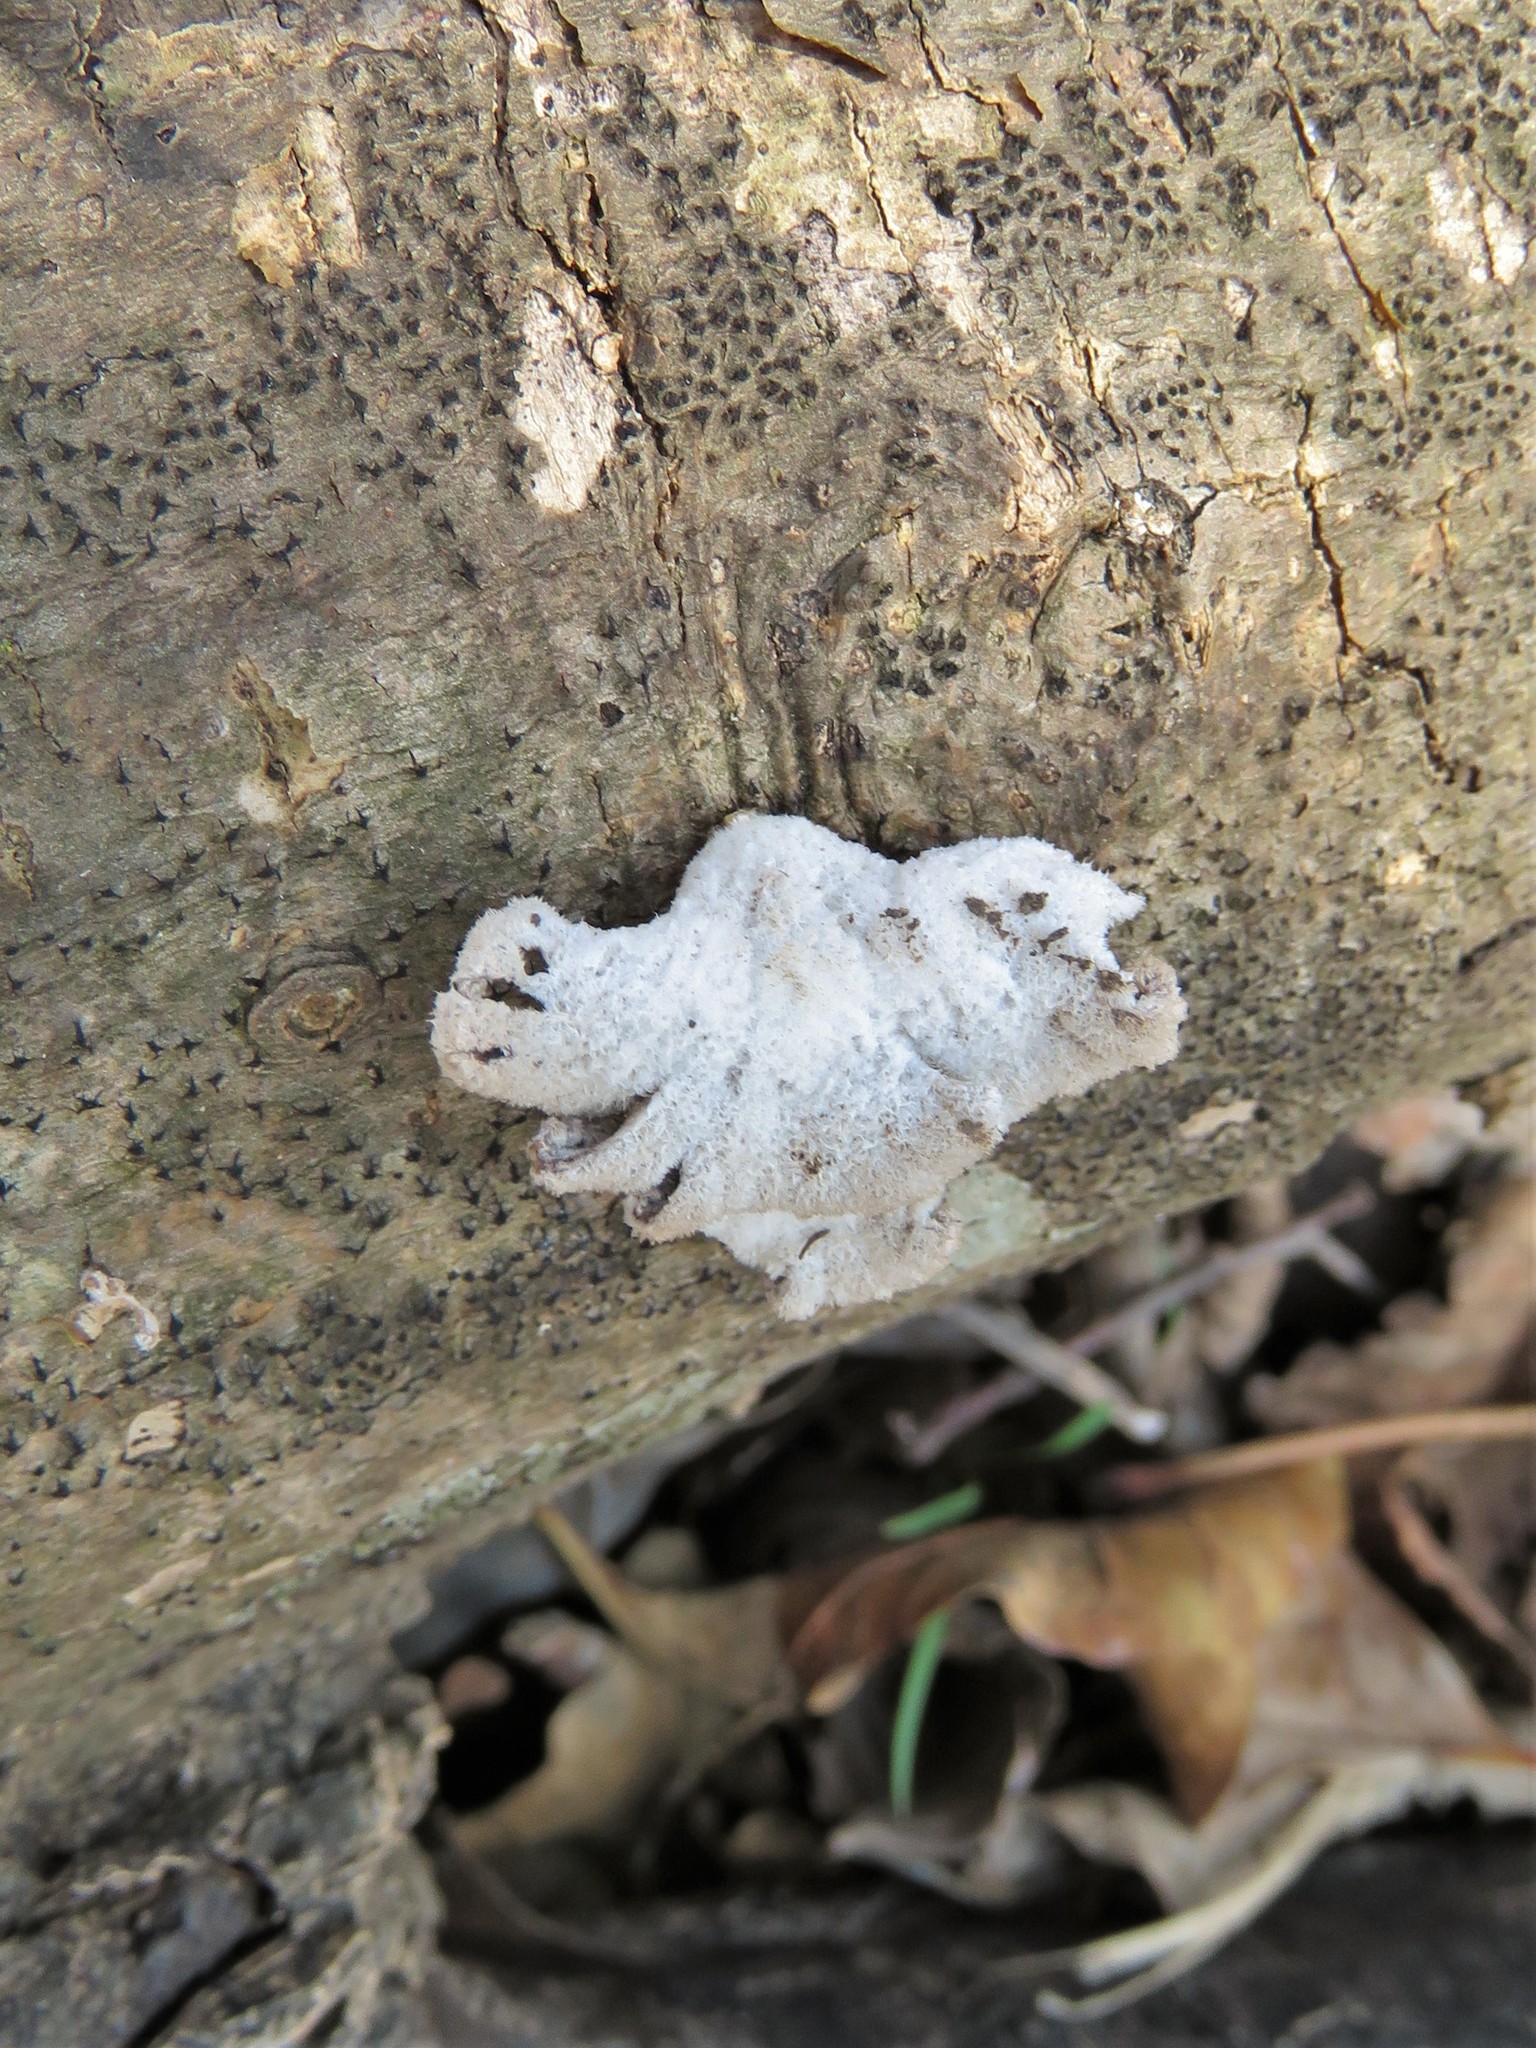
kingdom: Fungi
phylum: Basidiomycota
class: Agaricomycetes
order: Agaricales
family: Schizophyllaceae
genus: Schizophyllum
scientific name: Schizophyllum commune
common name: Common porecrust
